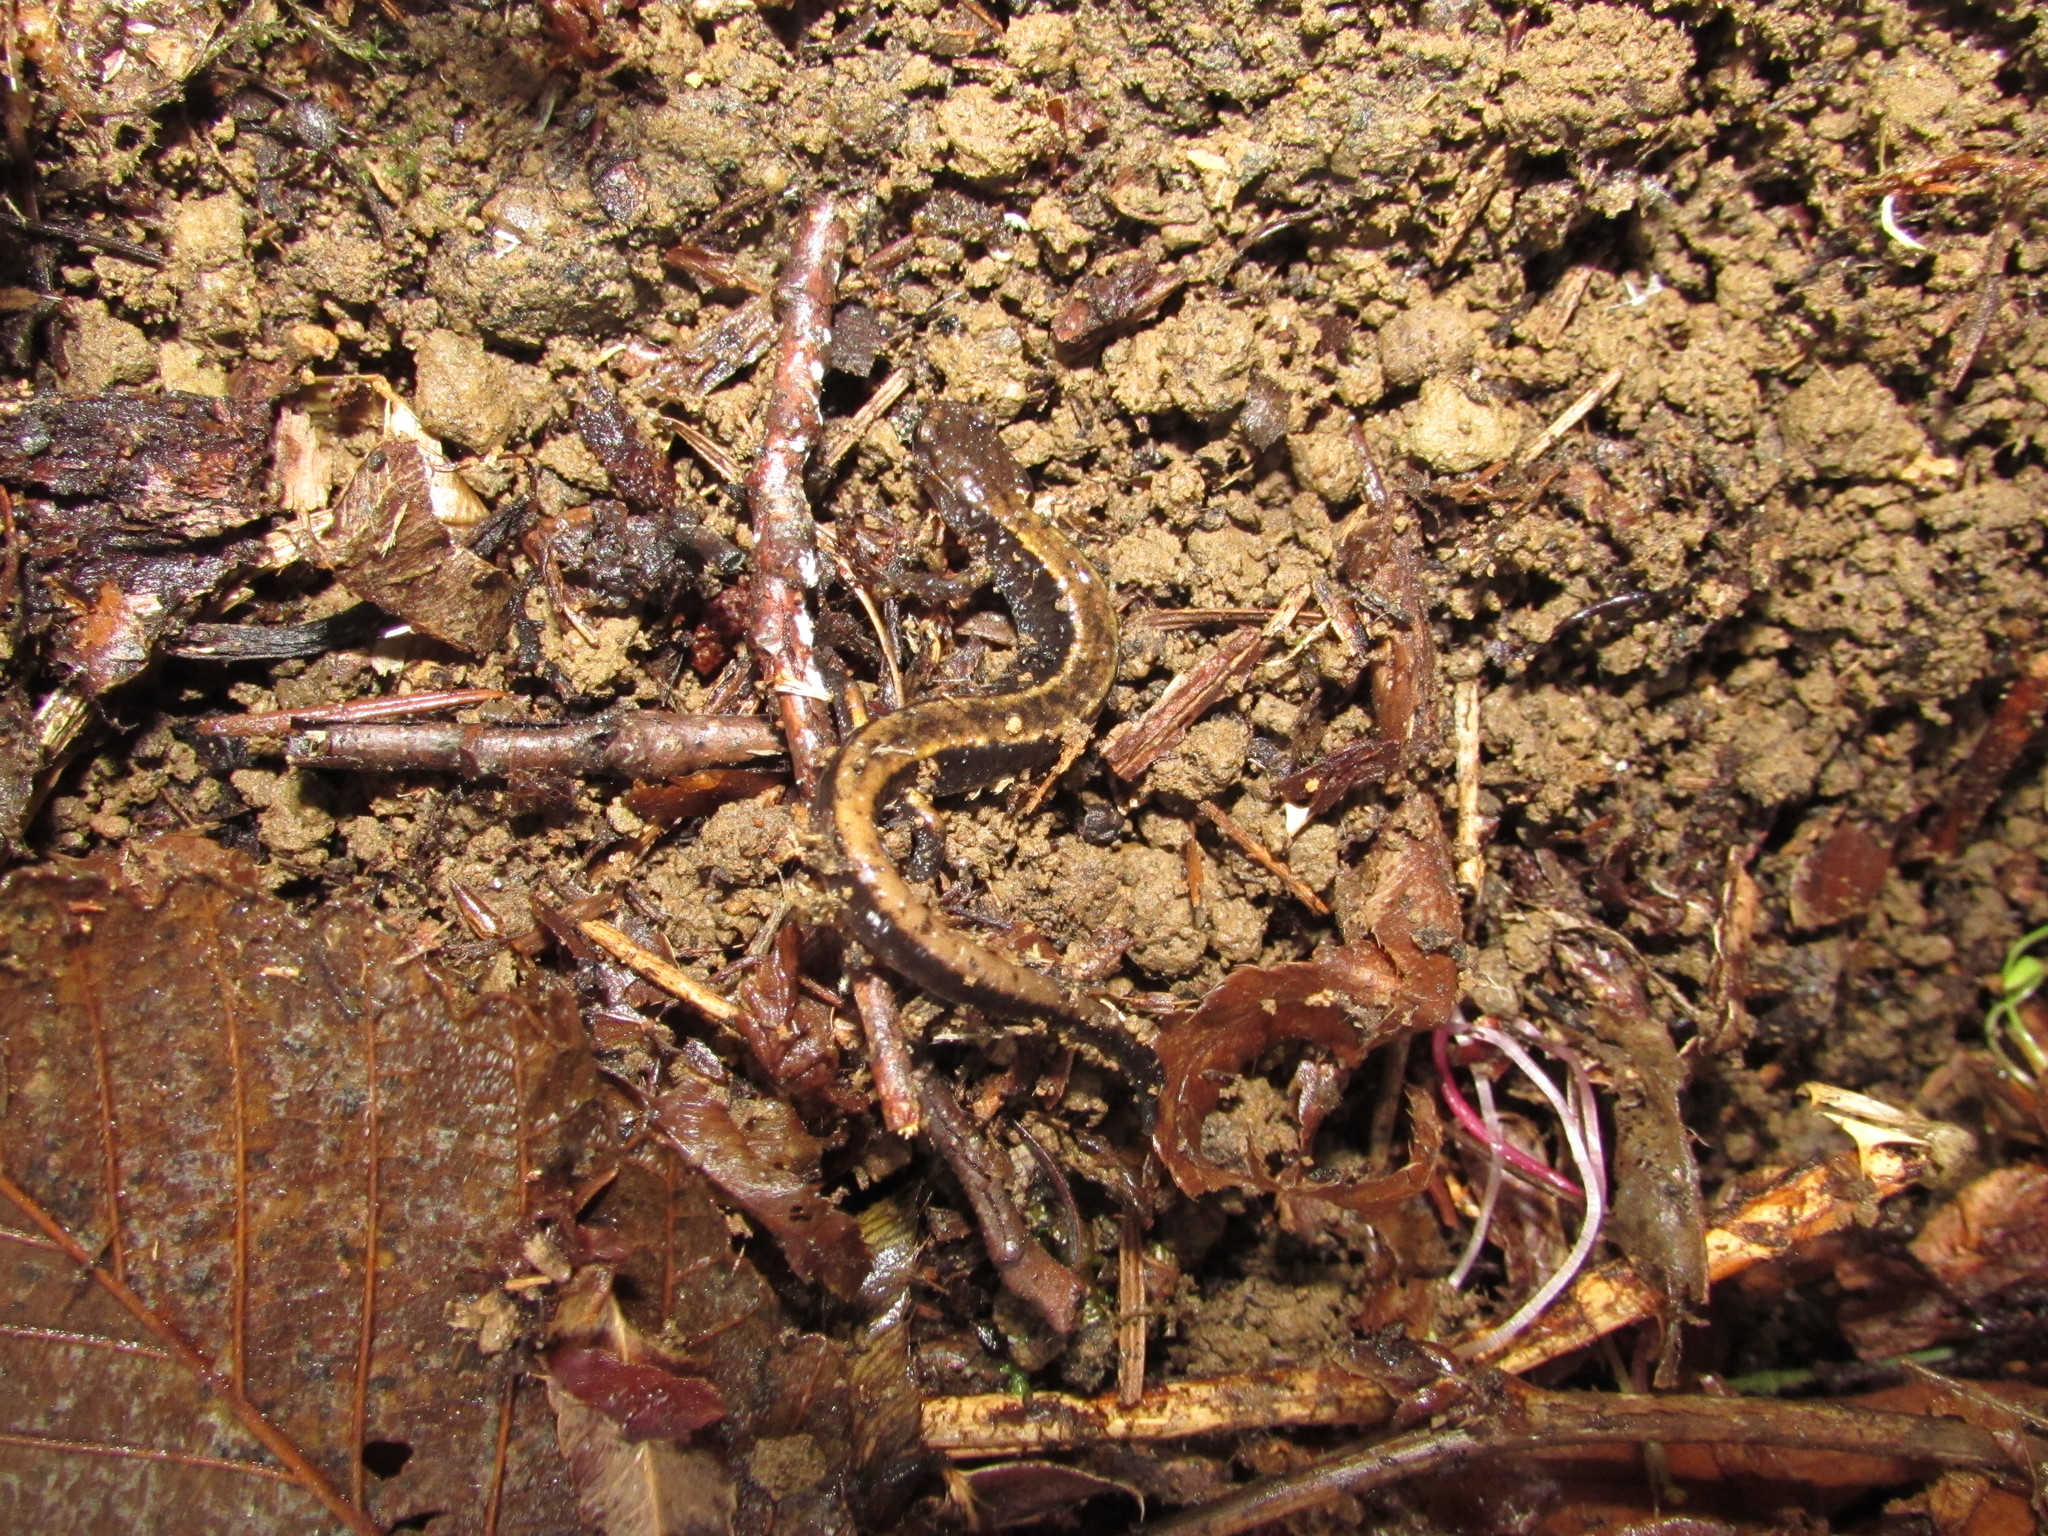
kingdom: Animalia
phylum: Chordata
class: Amphibia
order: Caudata
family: Plethodontidae
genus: Plethodon
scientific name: Plethodon vehiculum
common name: Western red-backed salamander
